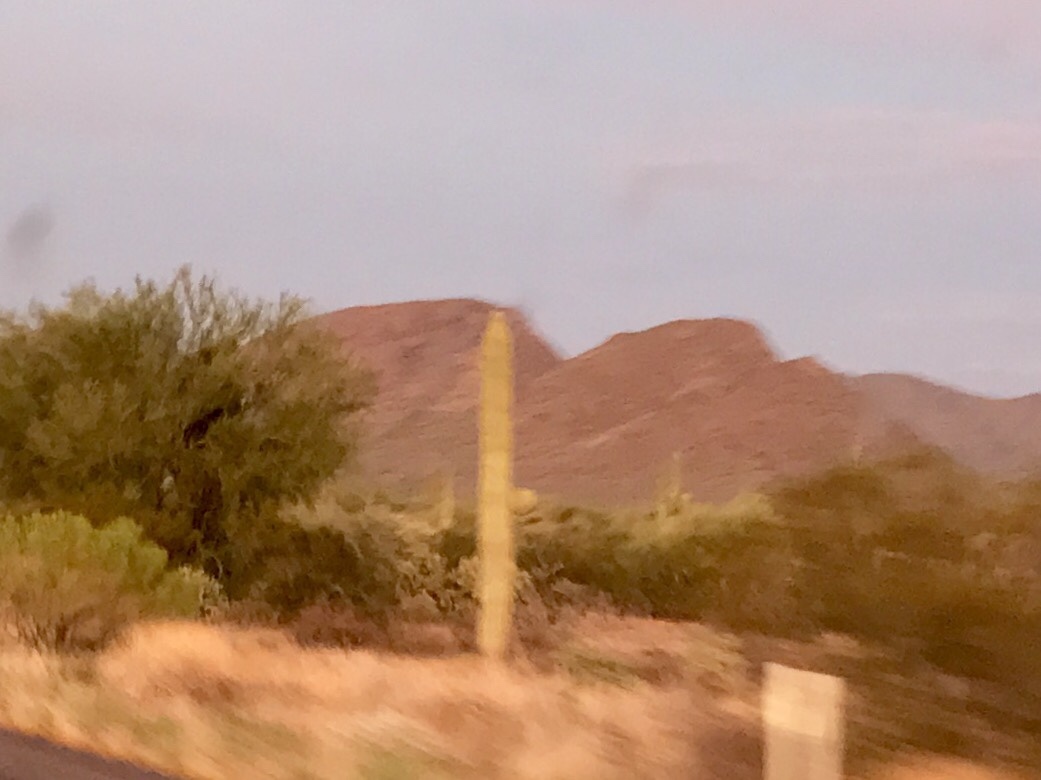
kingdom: Plantae
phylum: Tracheophyta
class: Magnoliopsida
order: Caryophyllales
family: Cactaceae
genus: Carnegiea
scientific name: Carnegiea gigantea
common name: Saguaro
